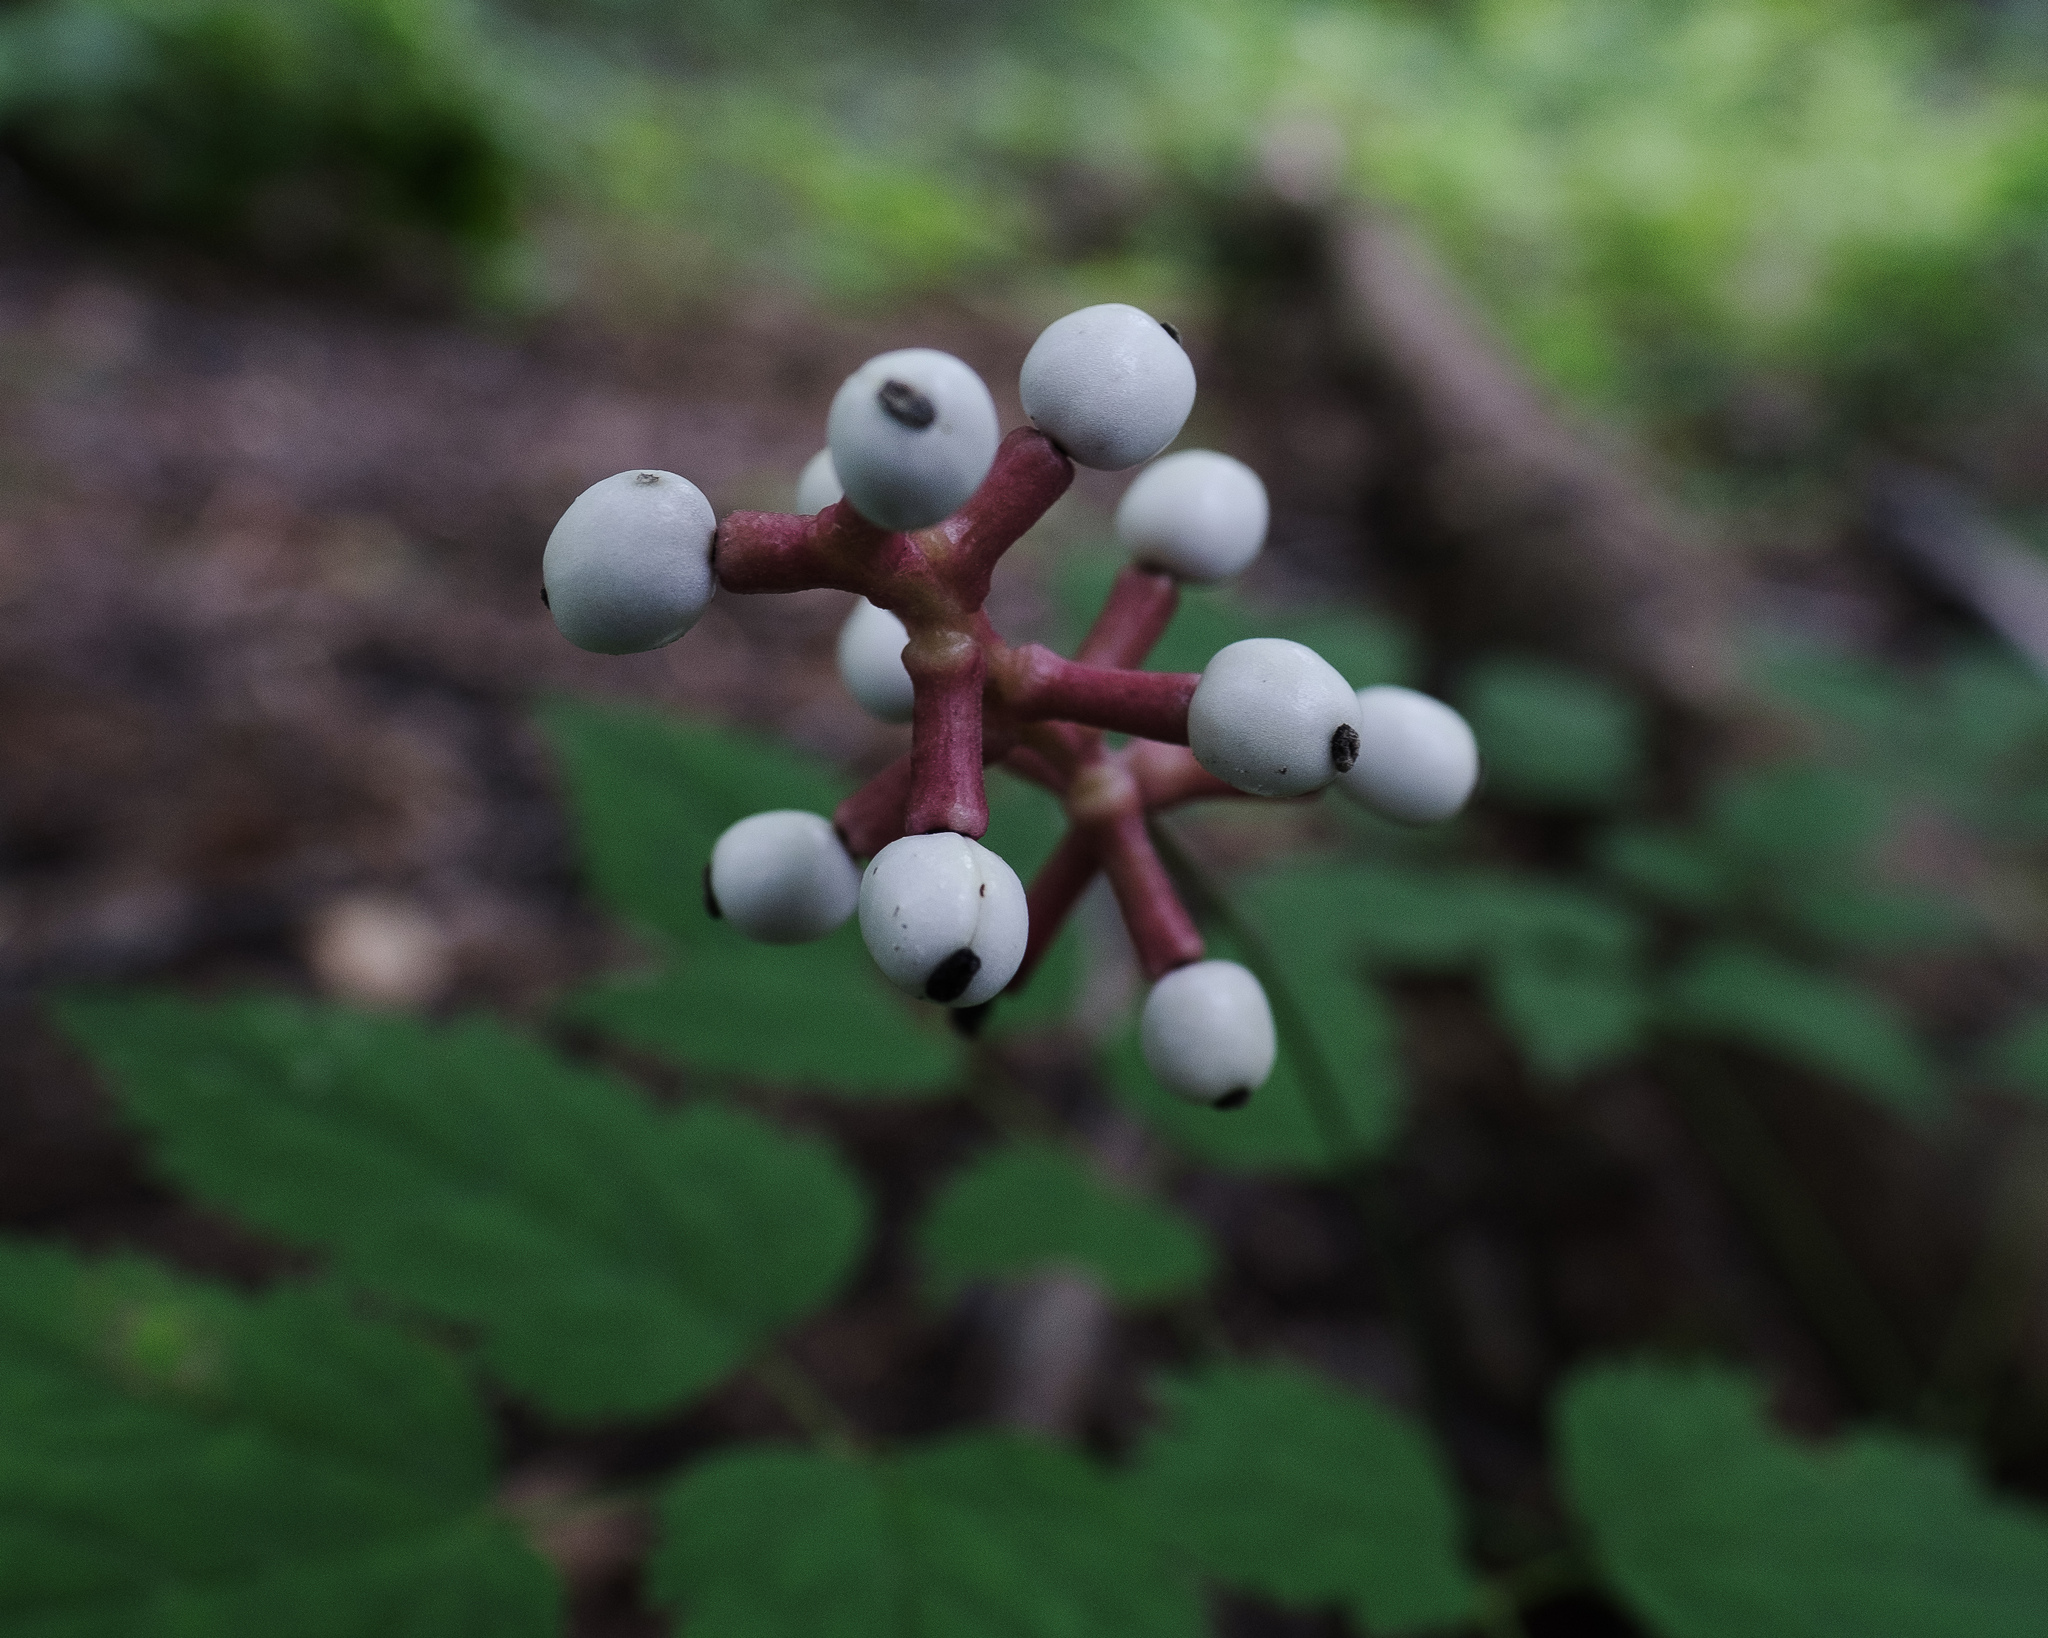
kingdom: Plantae
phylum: Tracheophyta
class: Magnoliopsida
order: Ranunculales
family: Ranunculaceae
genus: Actaea
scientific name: Actaea pachypoda
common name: Doll's-eyes
